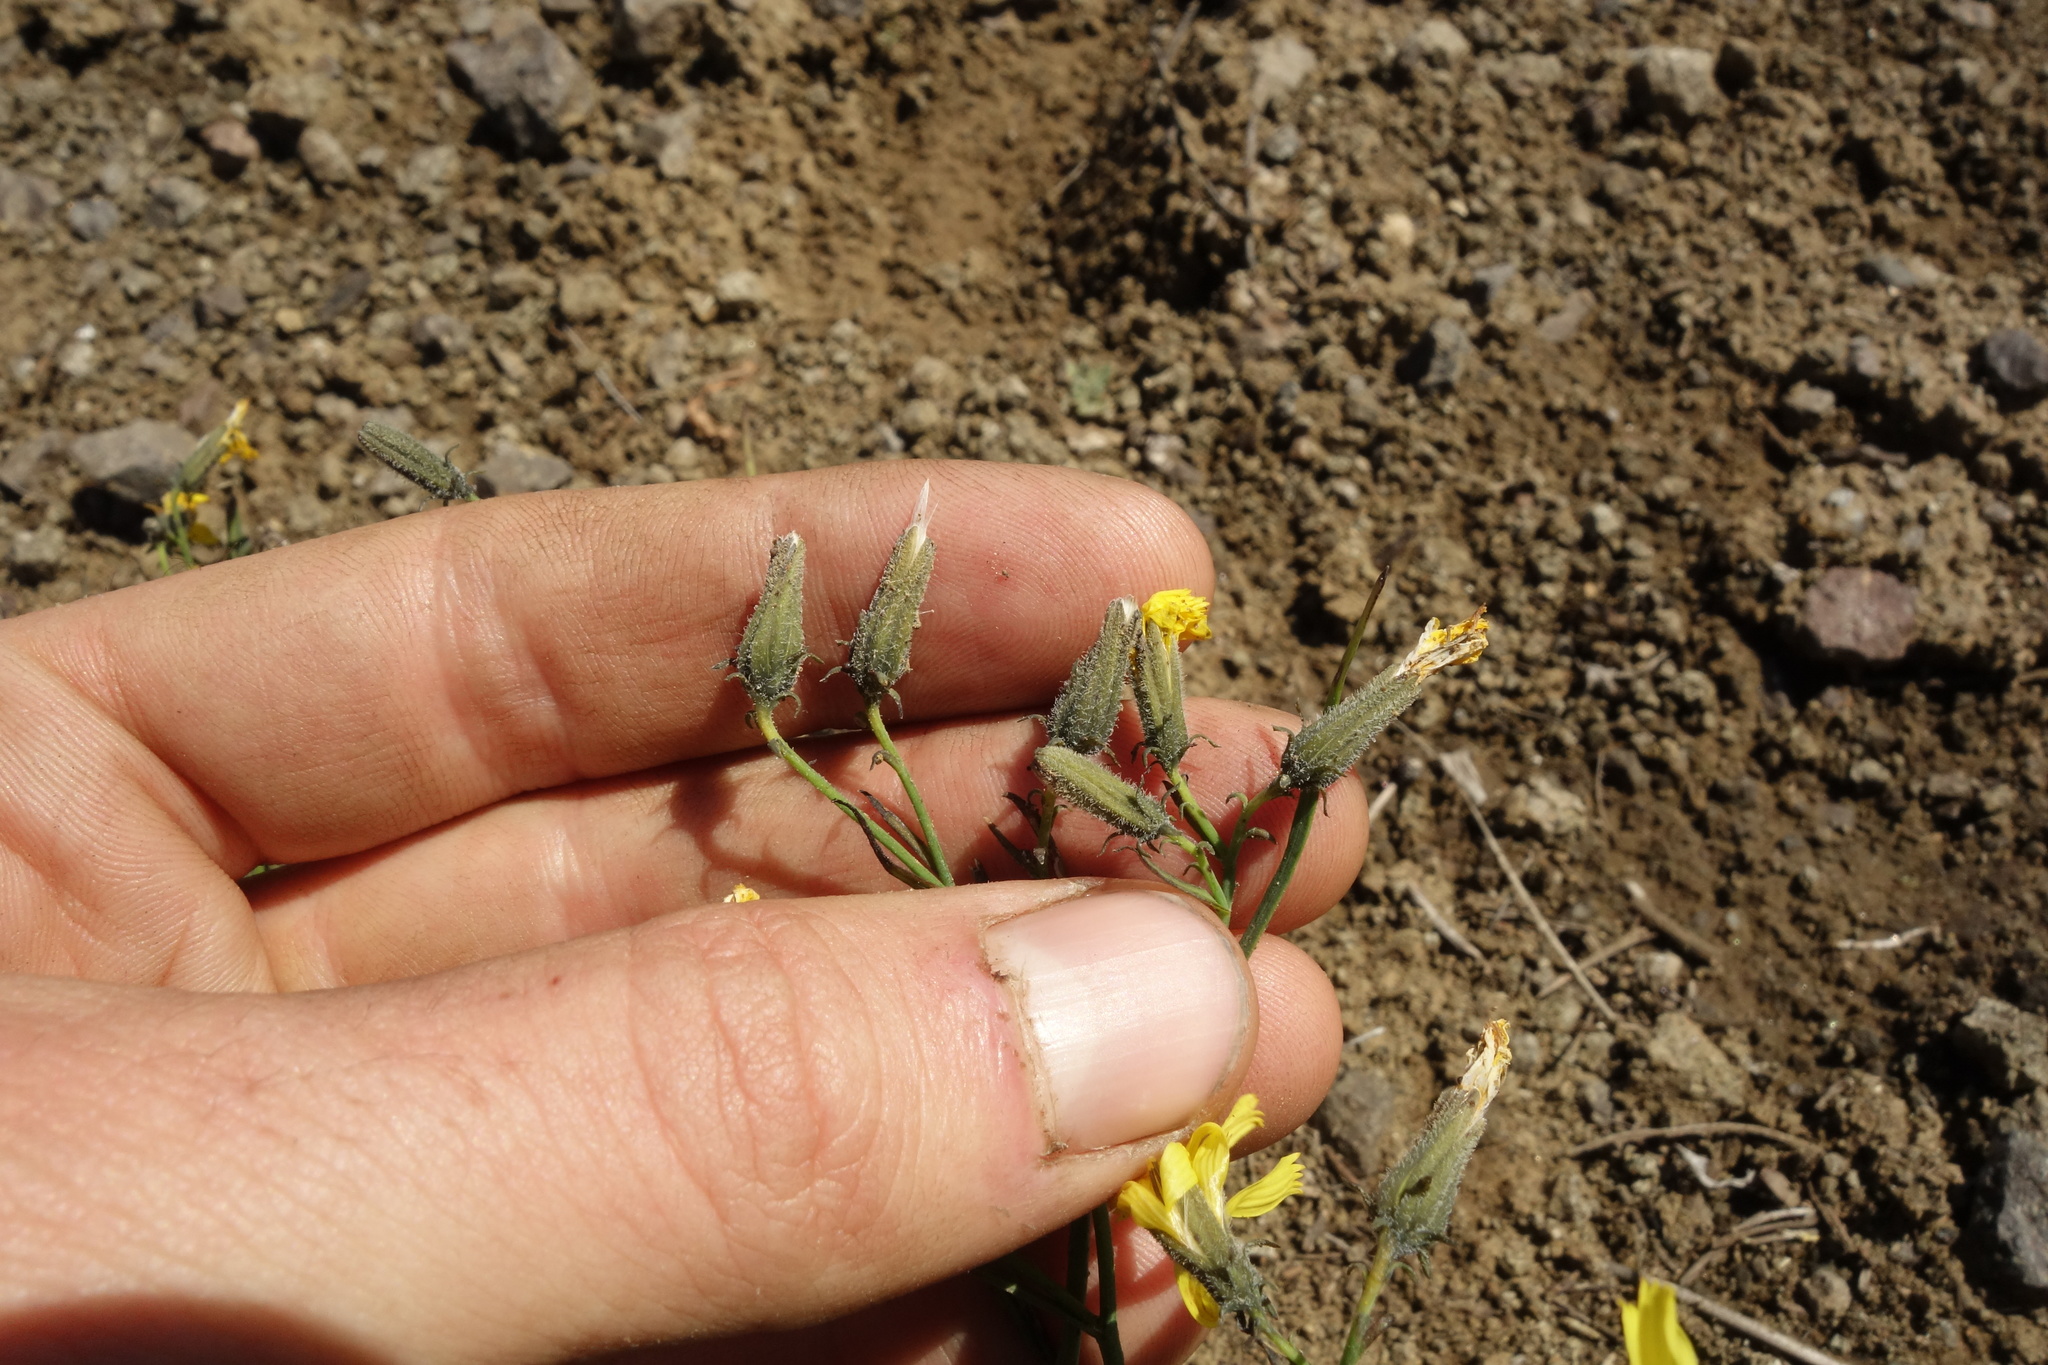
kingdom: Plantae
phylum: Tracheophyta
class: Magnoliopsida
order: Asterales
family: Asteraceae
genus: Crepidiastrum
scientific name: Crepidiastrum tenuifolium
